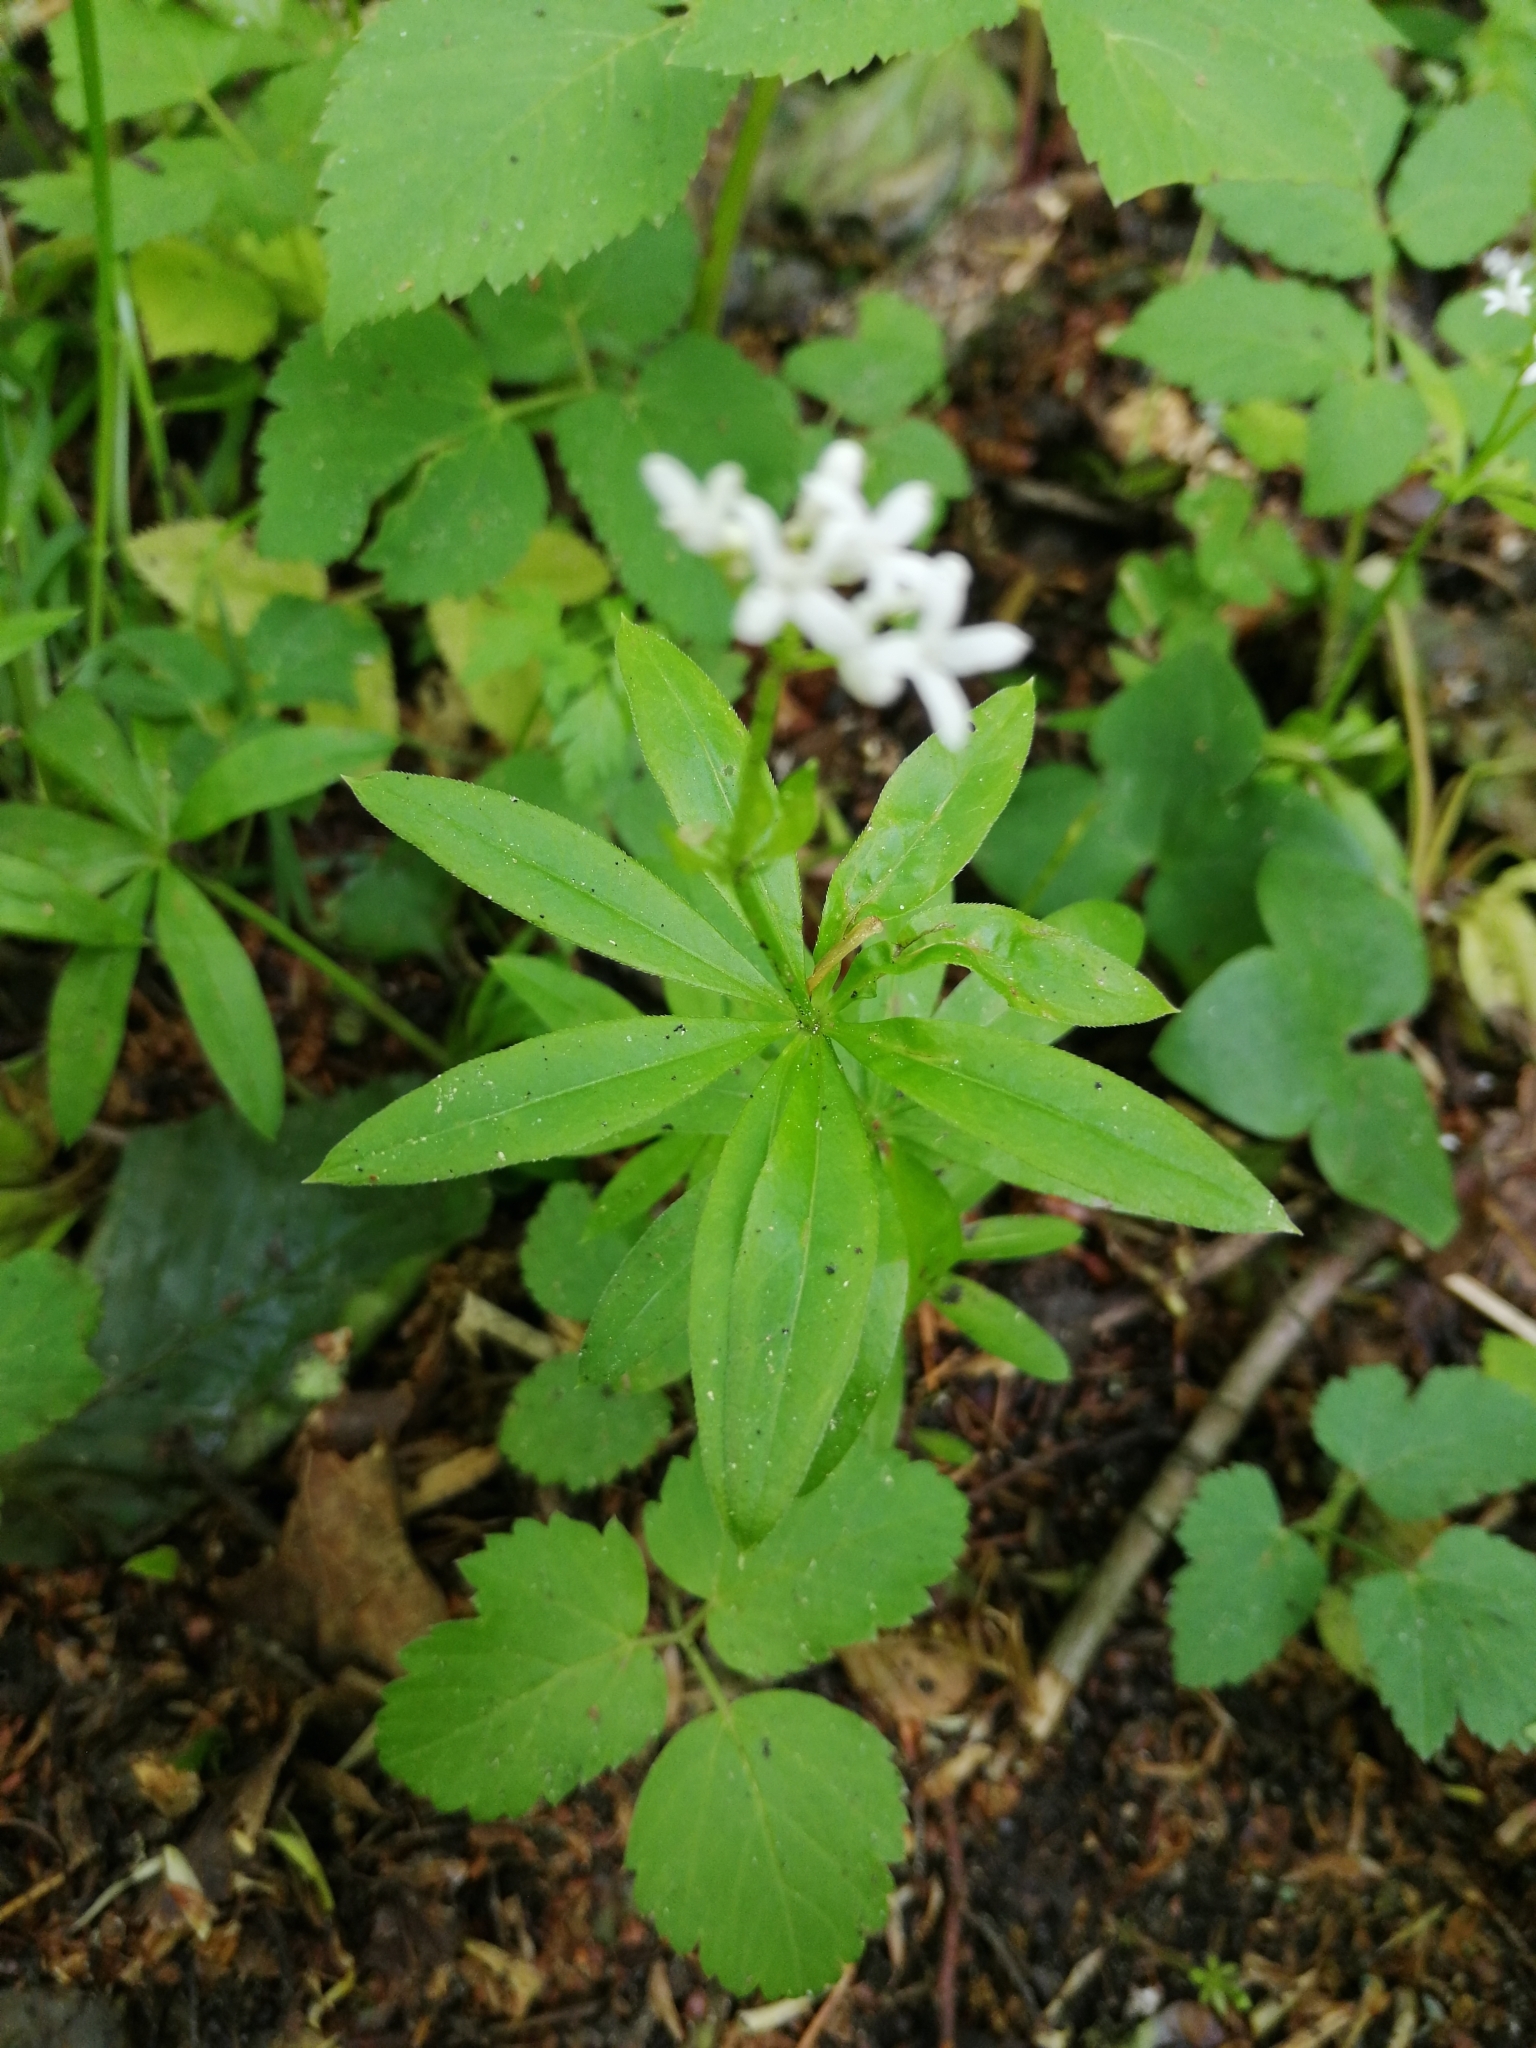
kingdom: Plantae
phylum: Tracheophyta
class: Magnoliopsida
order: Gentianales
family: Rubiaceae
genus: Galium
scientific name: Galium odoratum
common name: Sweet woodruff
